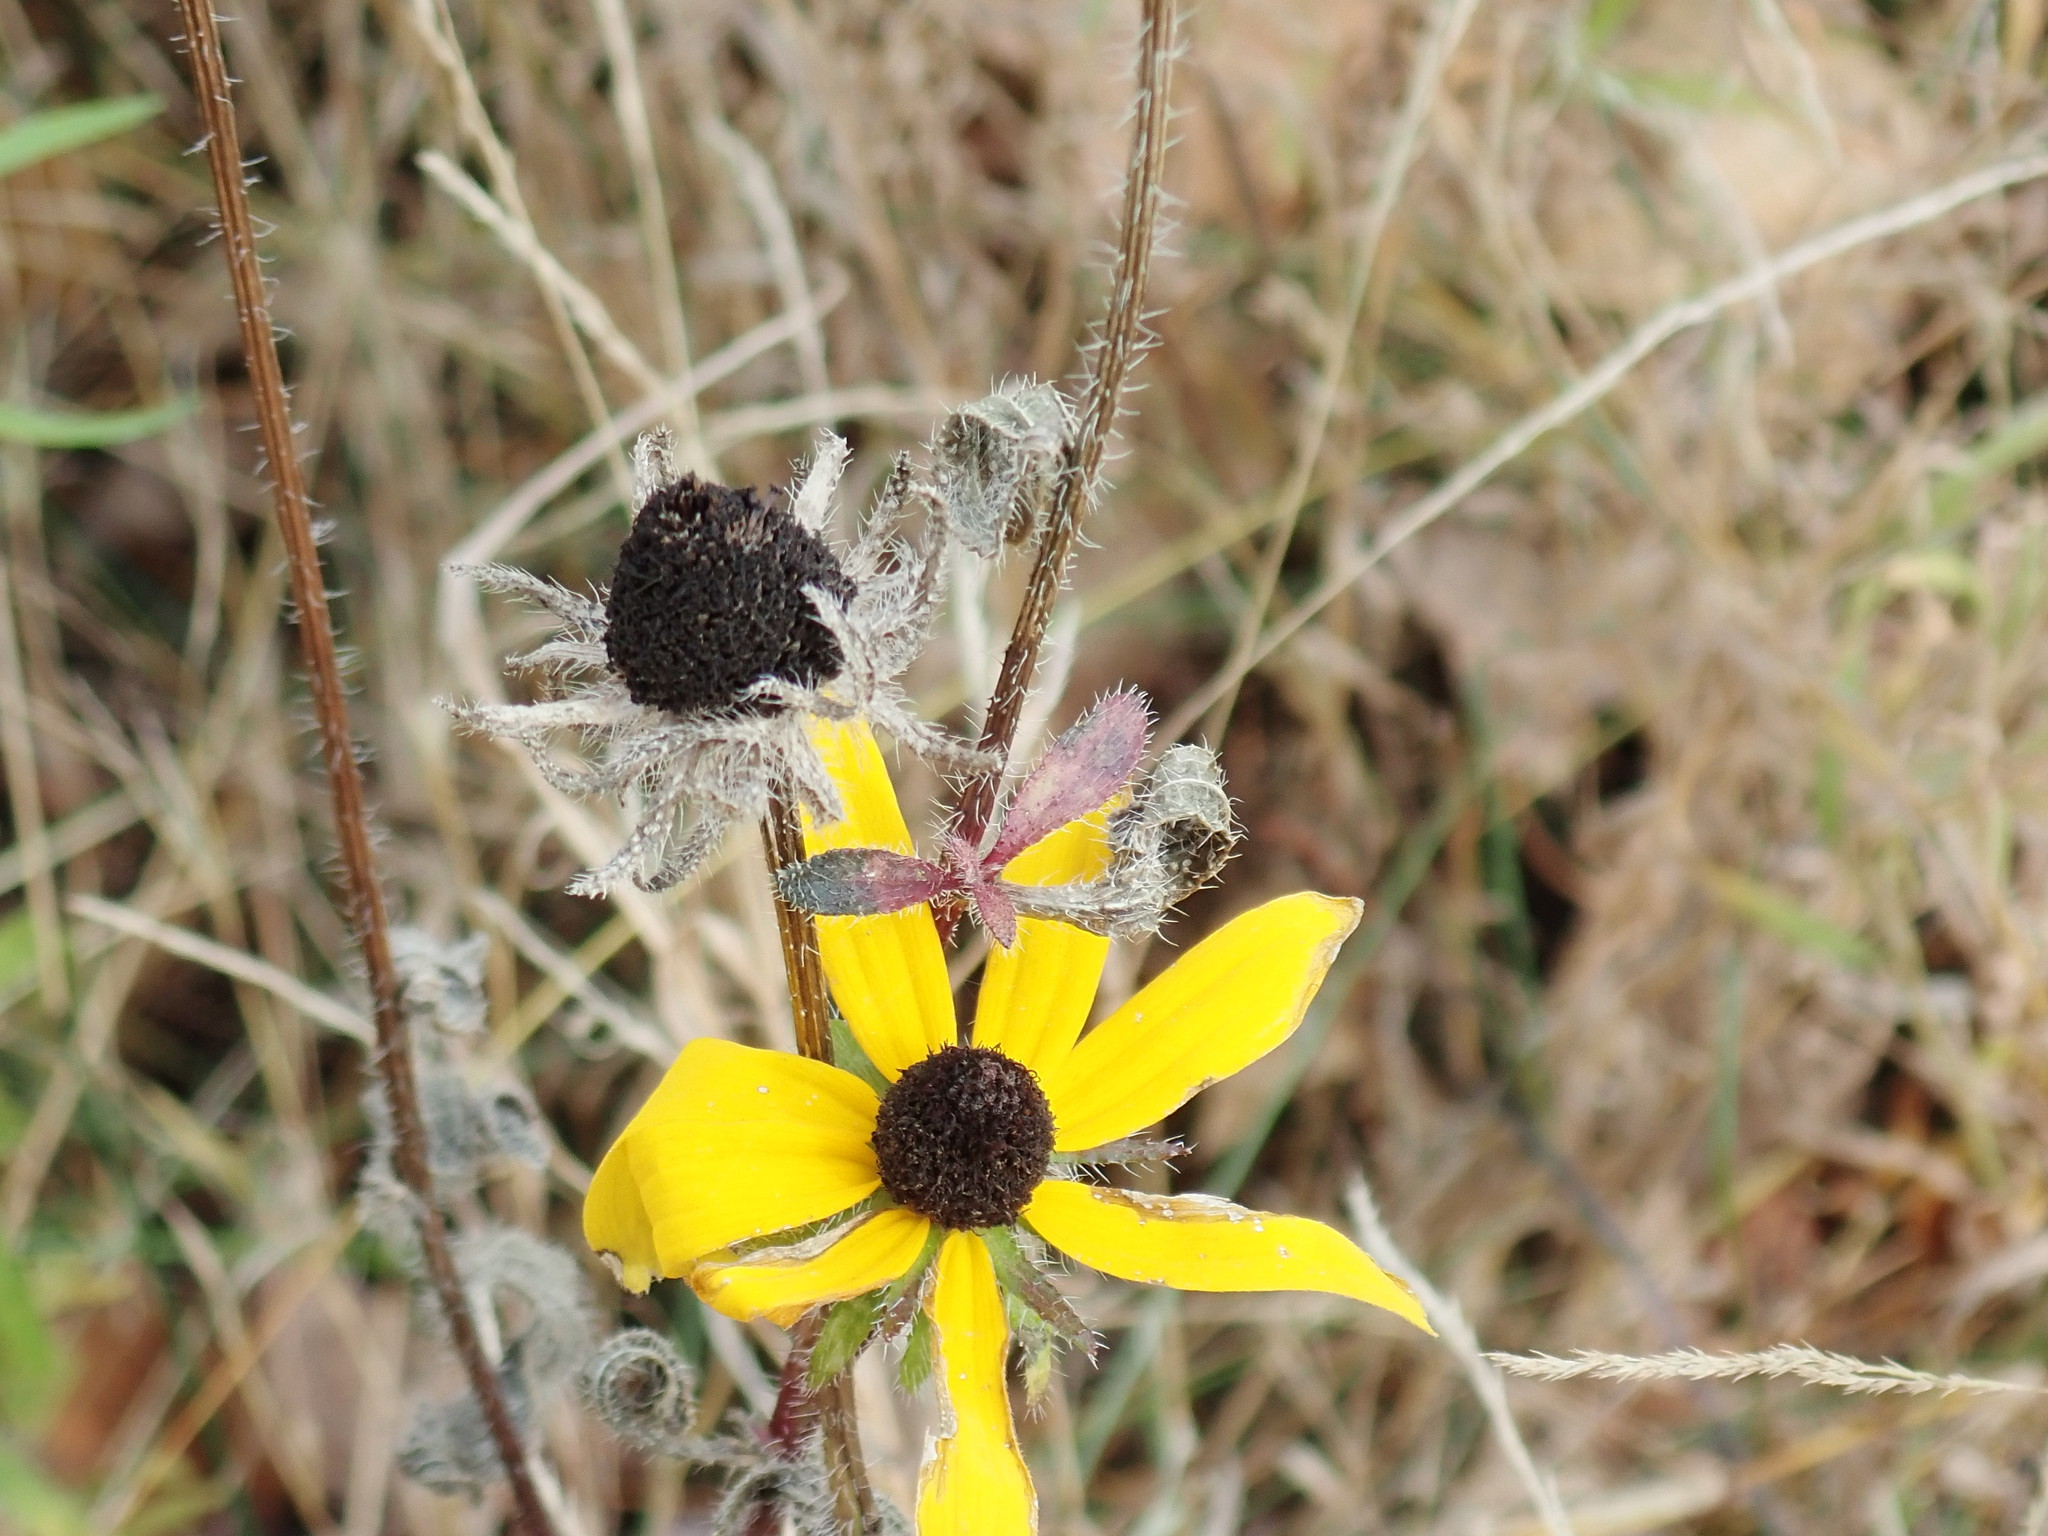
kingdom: Plantae
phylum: Tracheophyta
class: Magnoliopsida
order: Asterales
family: Asteraceae
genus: Rudbeckia
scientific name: Rudbeckia hirta
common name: Black-eyed-susan
